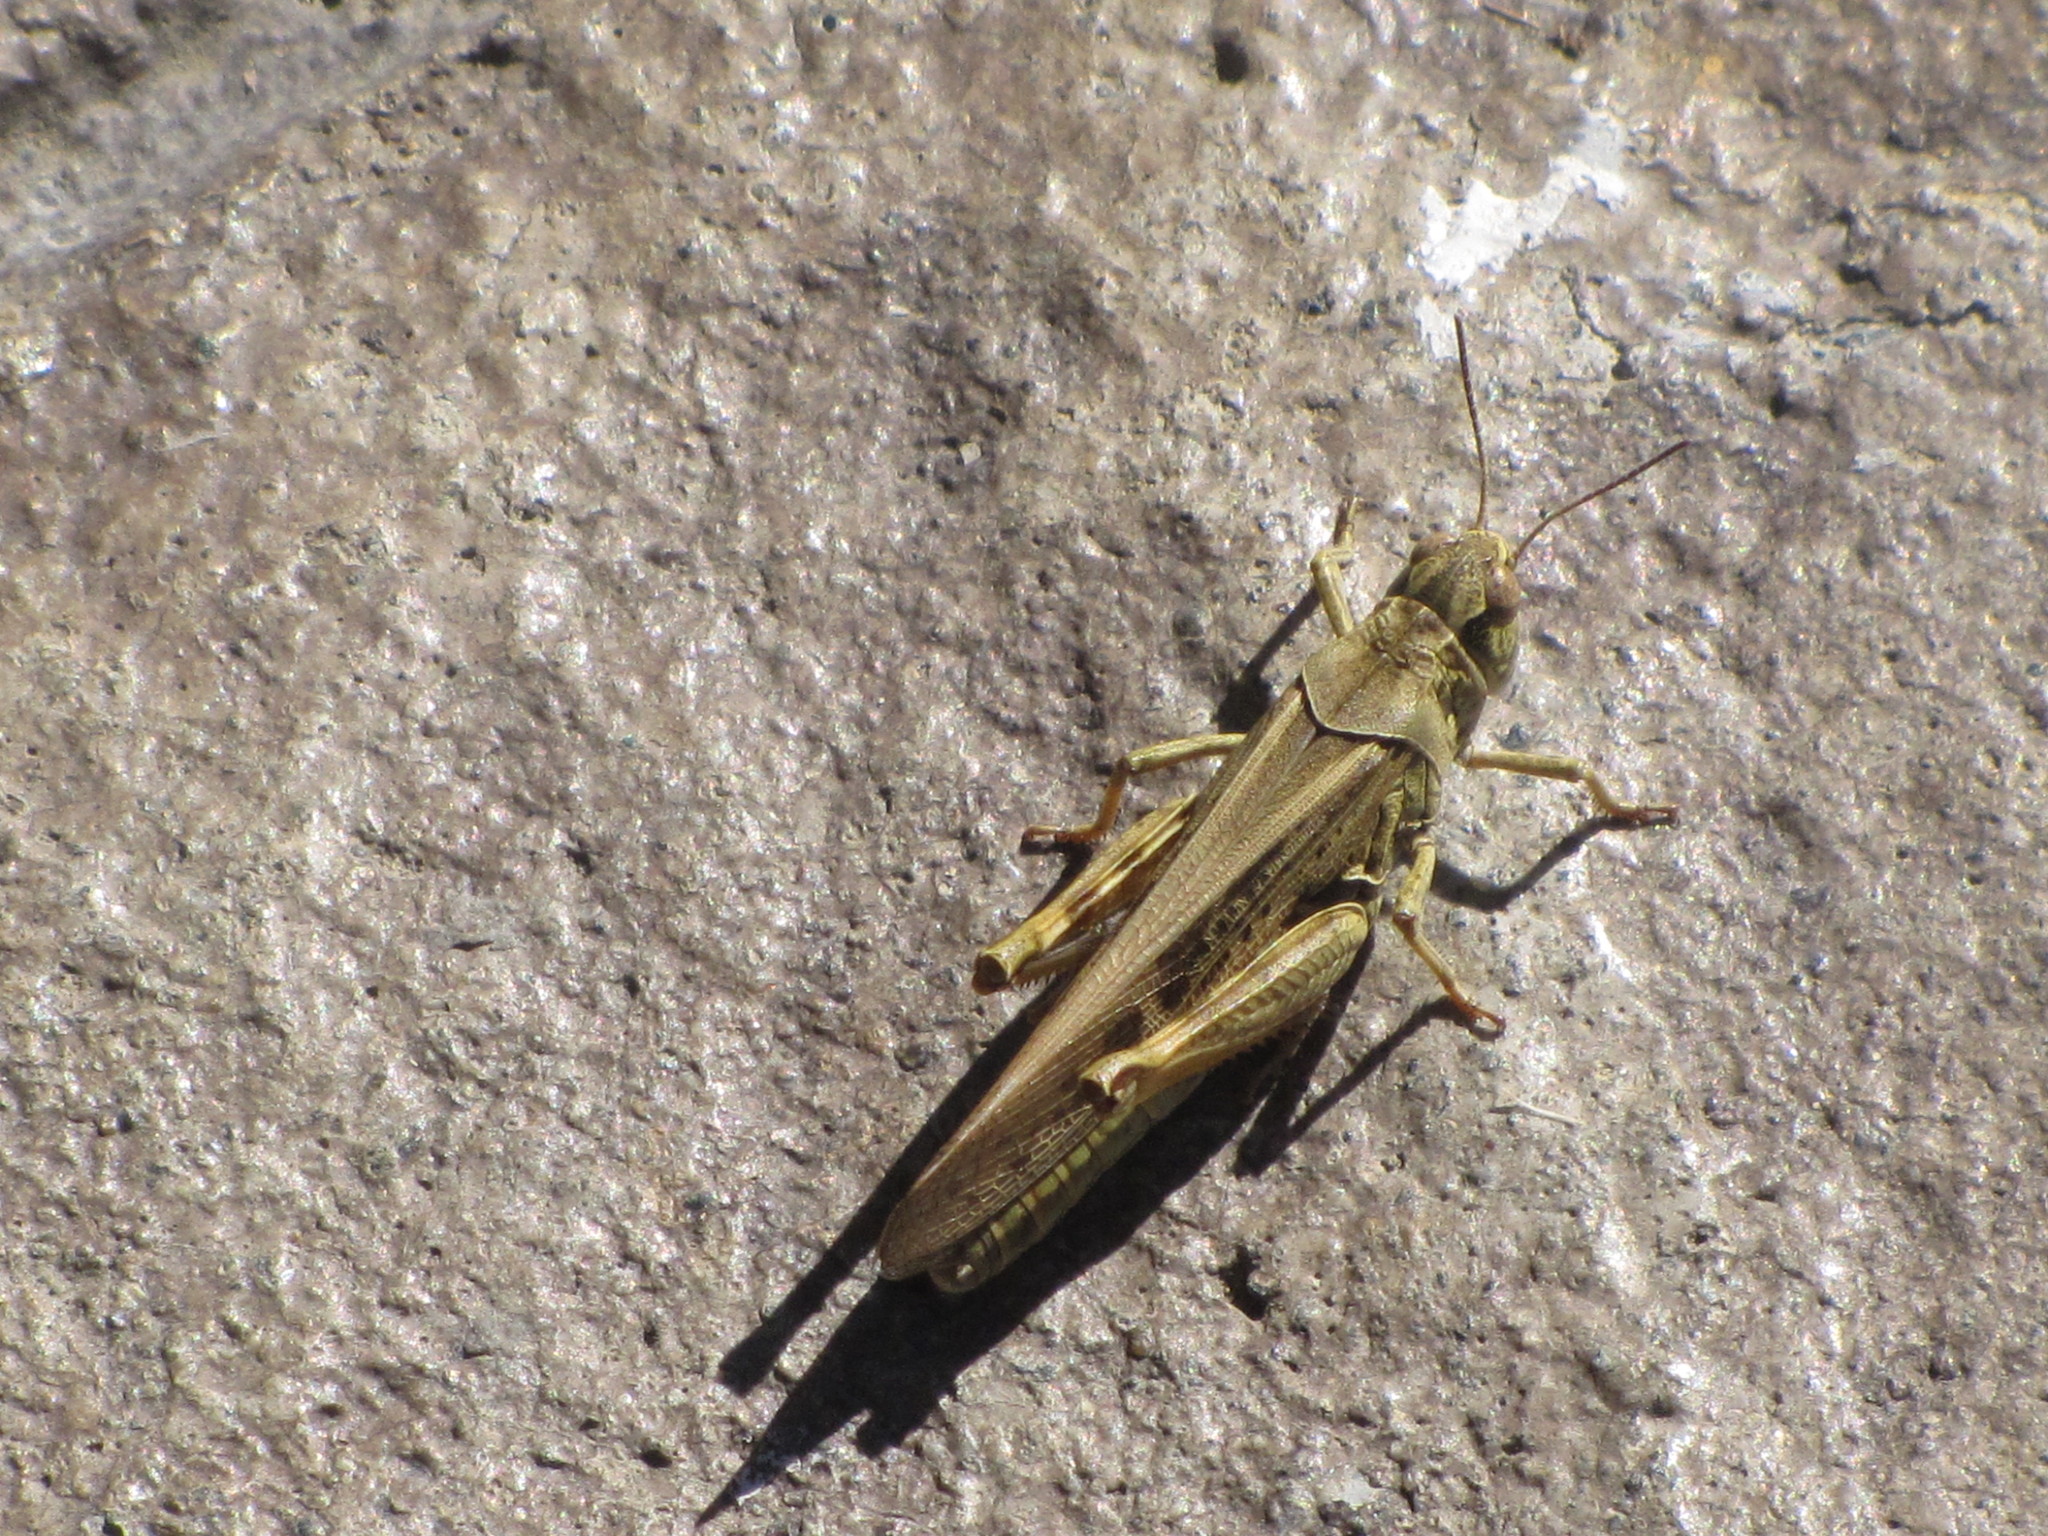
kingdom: Animalia
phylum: Arthropoda
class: Insecta
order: Orthoptera
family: Acrididae
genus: Camnula
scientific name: Camnula pellucida
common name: Clear-winged grasshopper
